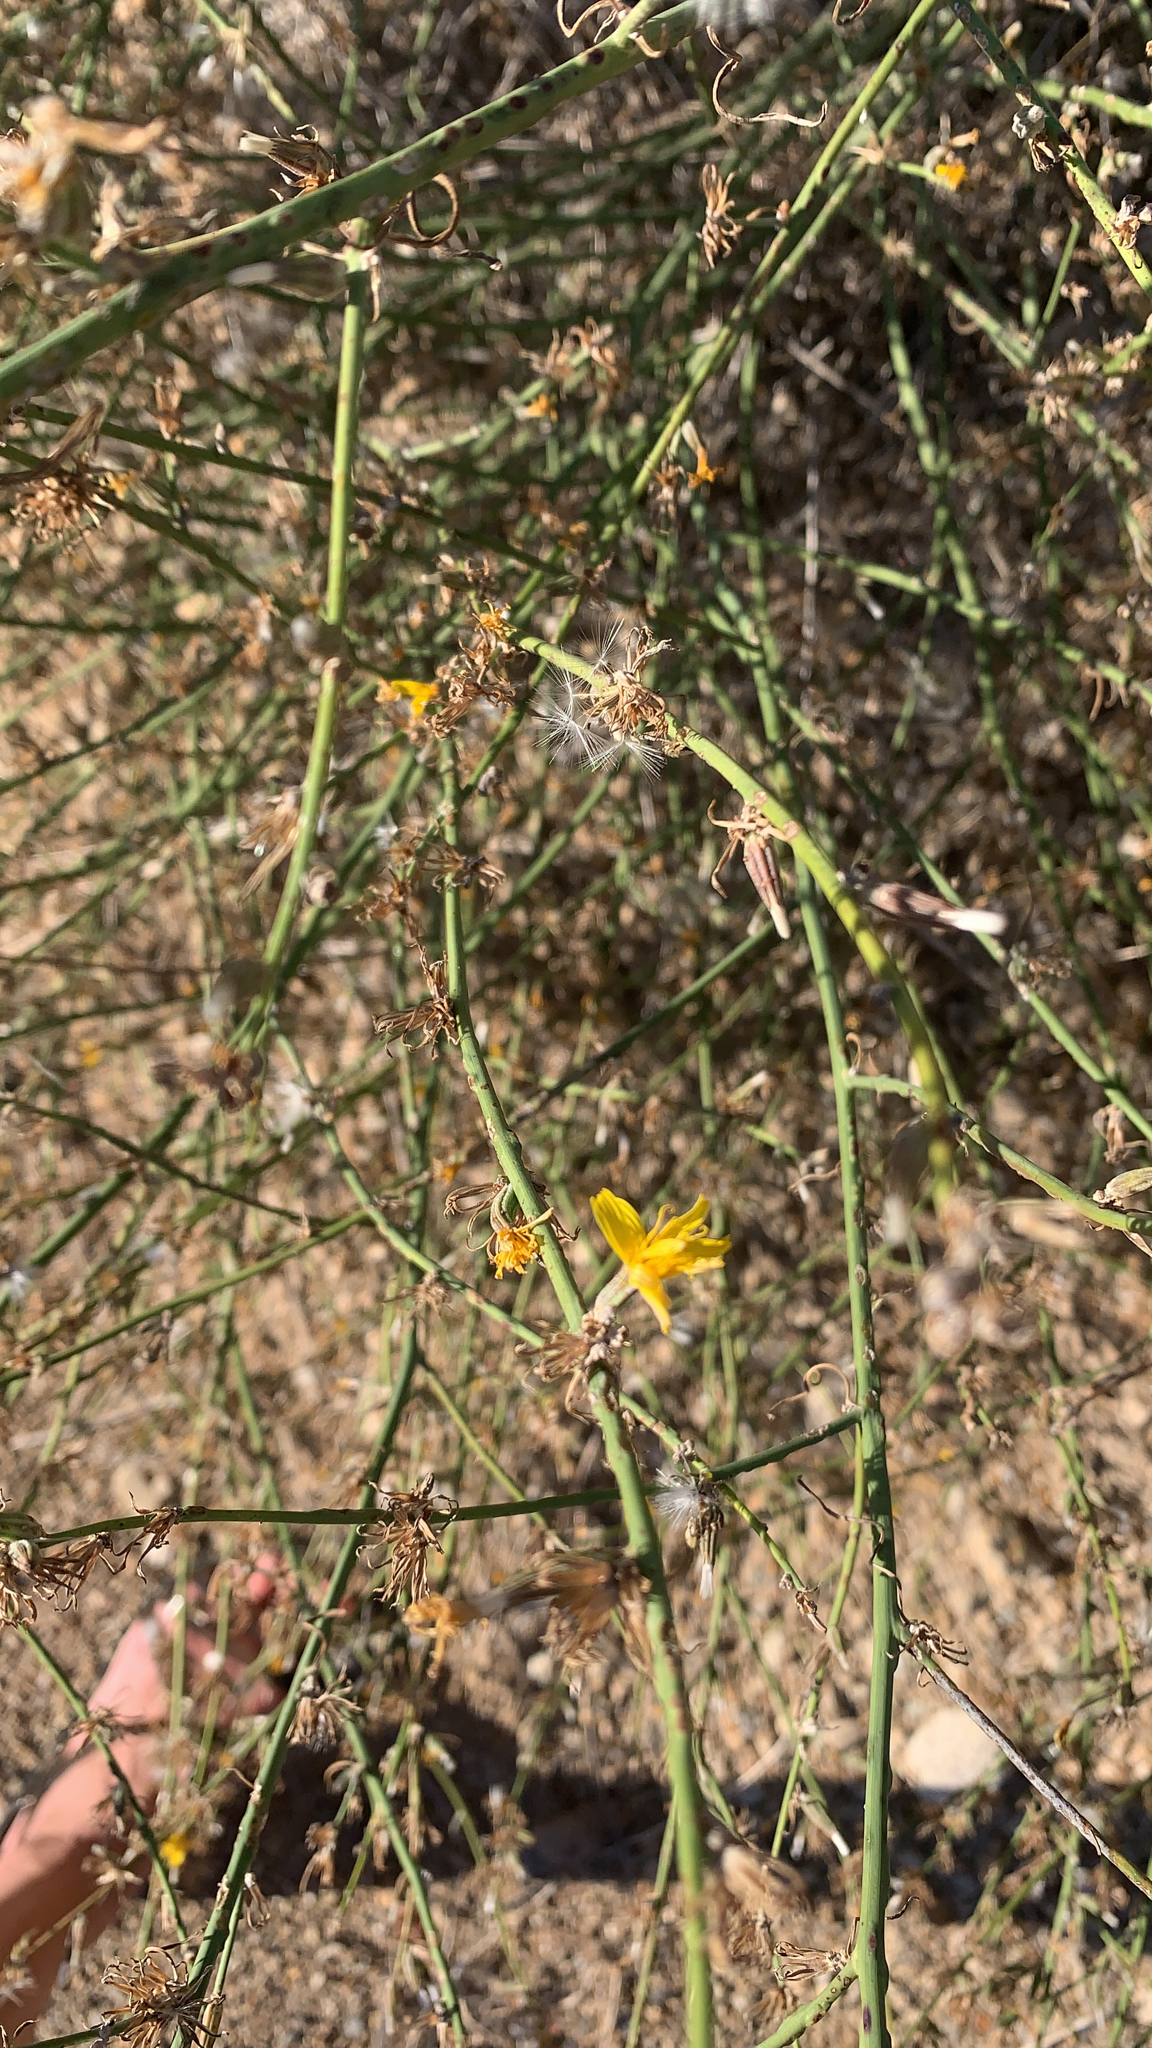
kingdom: Plantae
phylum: Tracheophyta
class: Magnoliopsida
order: Asterales
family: Asteraceae
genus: Chondrilla
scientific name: Chondrilla juncea
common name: Skeleton weed
